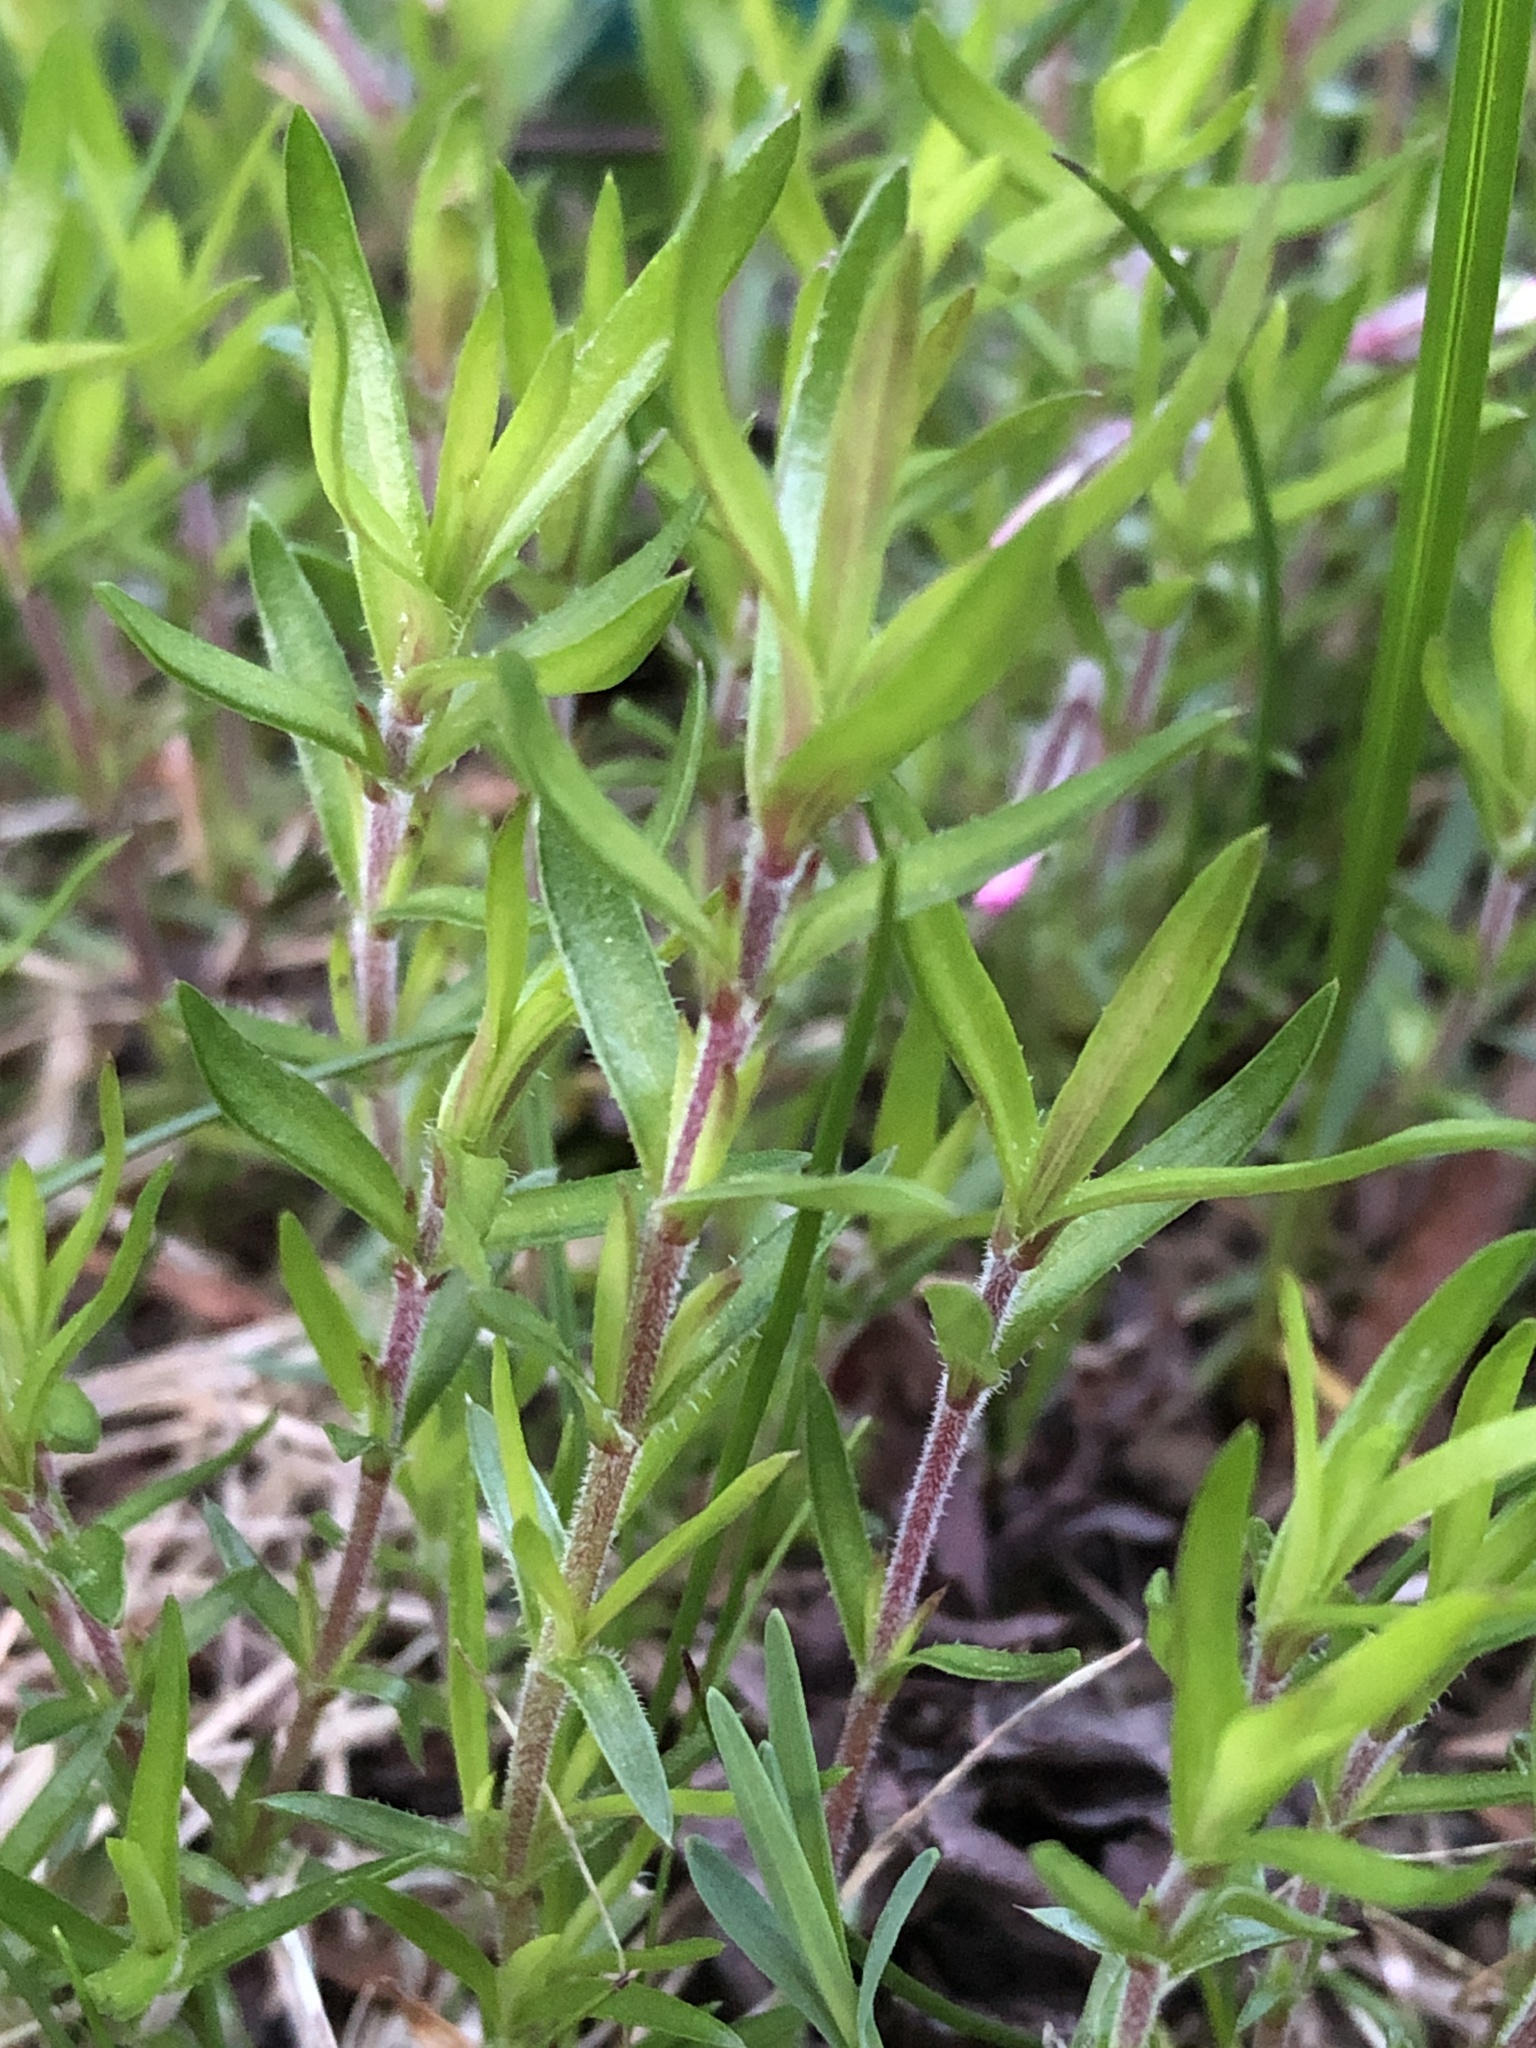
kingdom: Plantae
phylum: Tracheophyta
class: Magnoliopsida
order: Ericales
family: Polemoniaceae
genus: Phlox
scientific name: Phlox subulata
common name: Moss phlox
